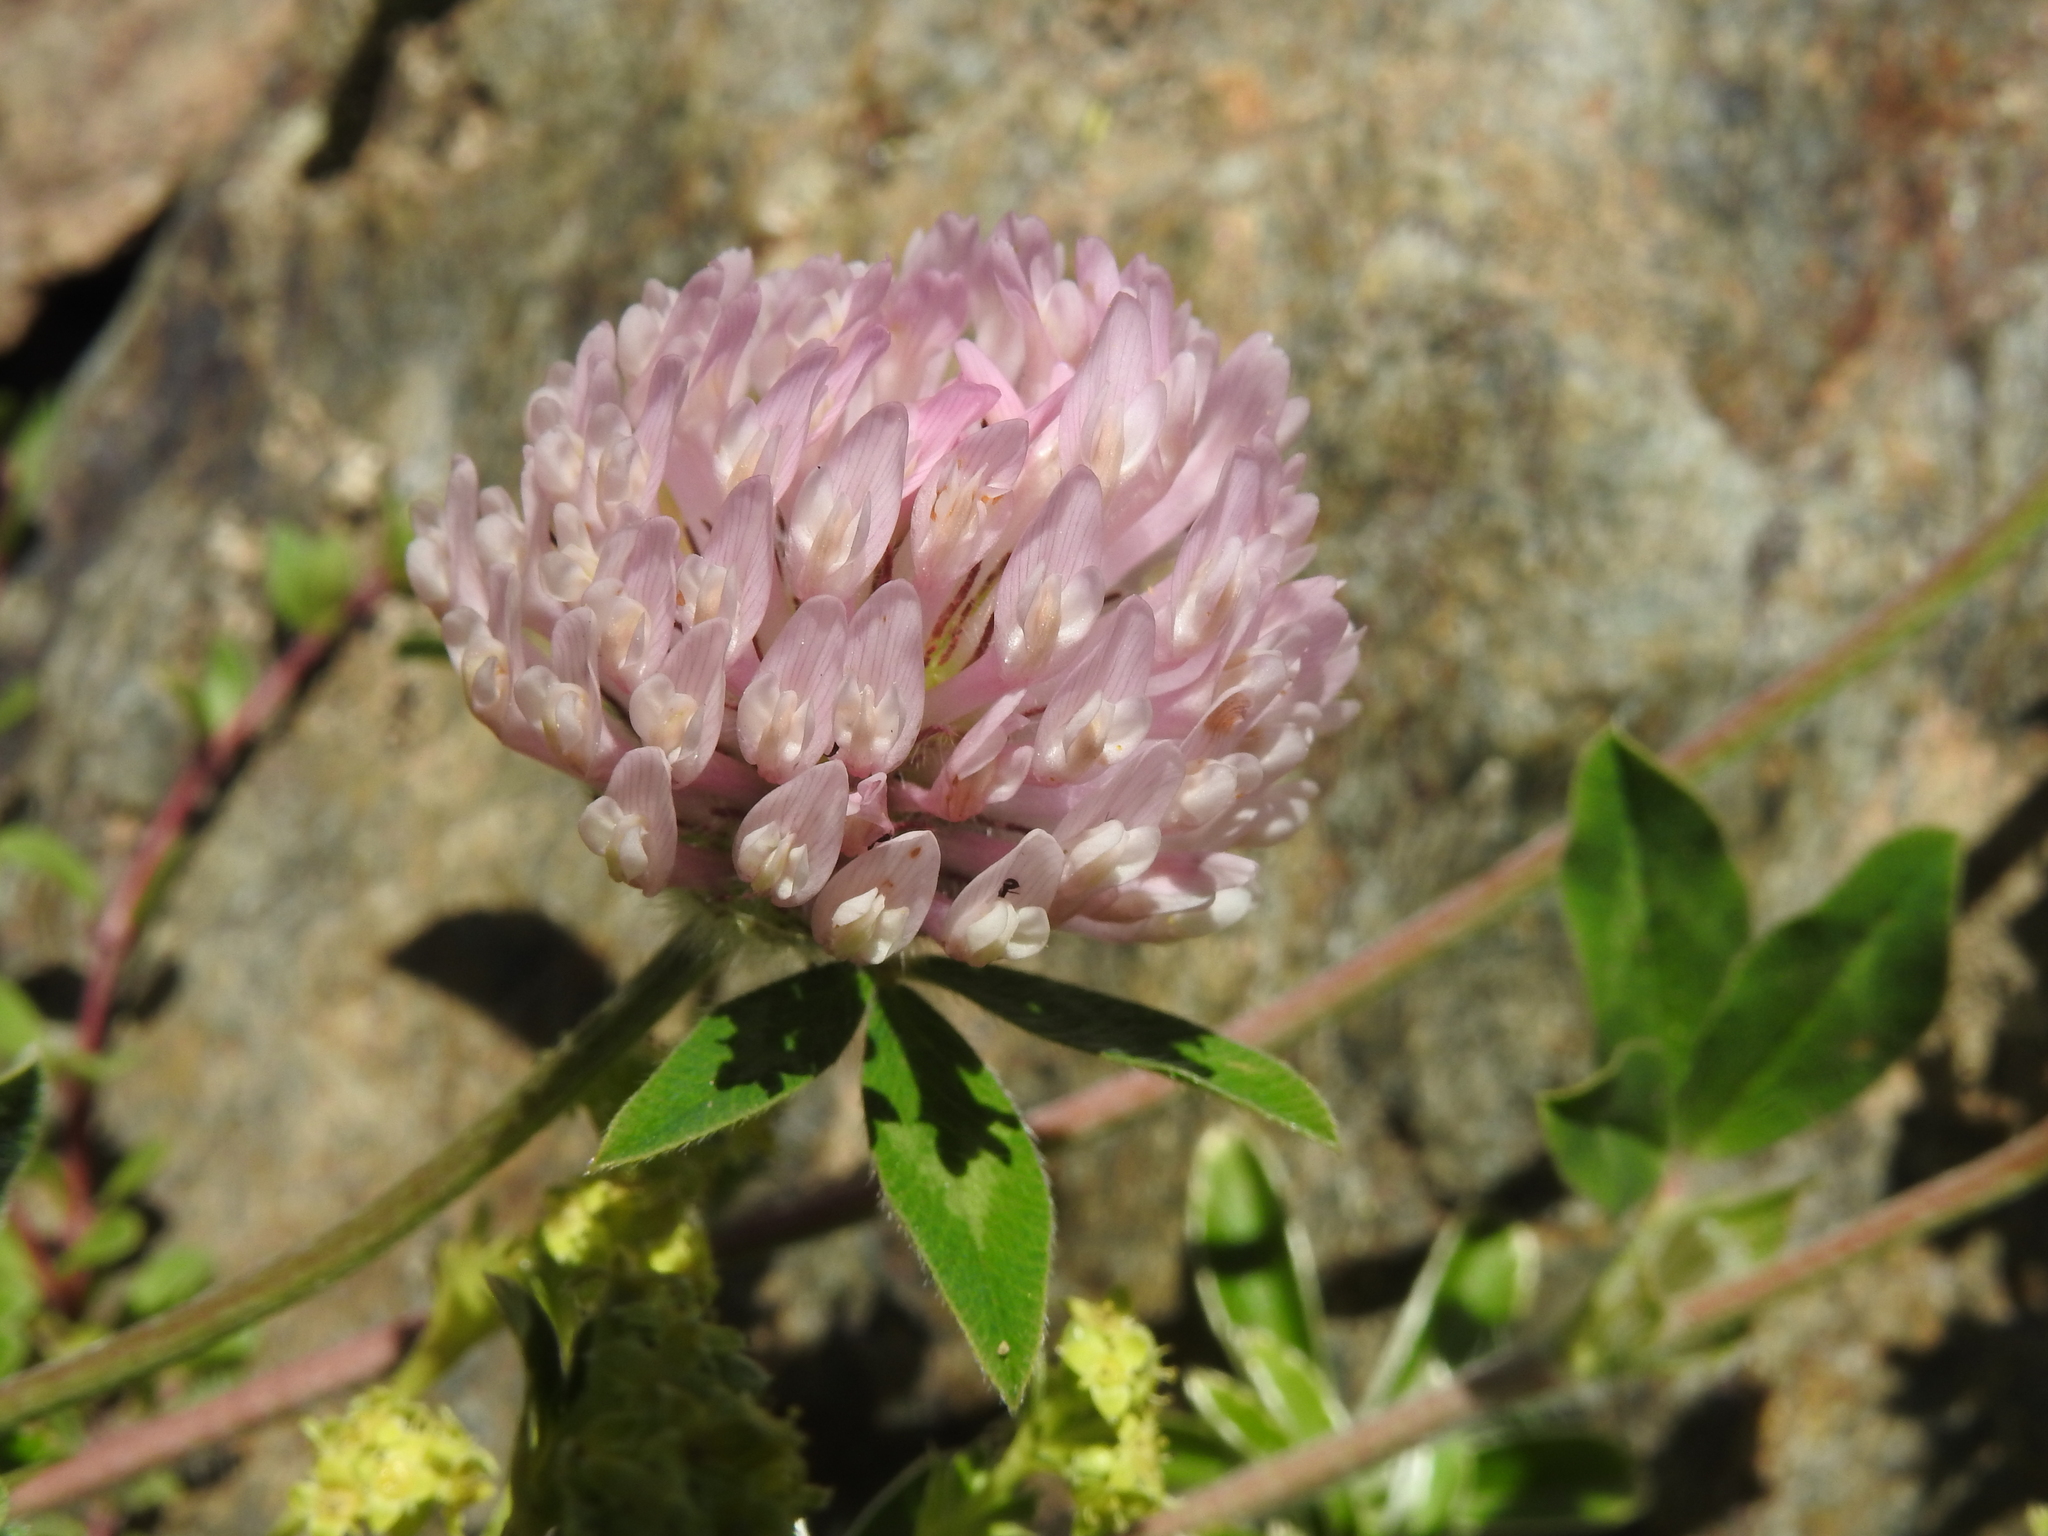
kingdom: Plantae
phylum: Tracheophyta
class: Magnoliopsida
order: Fabales
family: Fabaceae
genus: Trifolium
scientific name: Trifolium pratense
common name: Red clover
